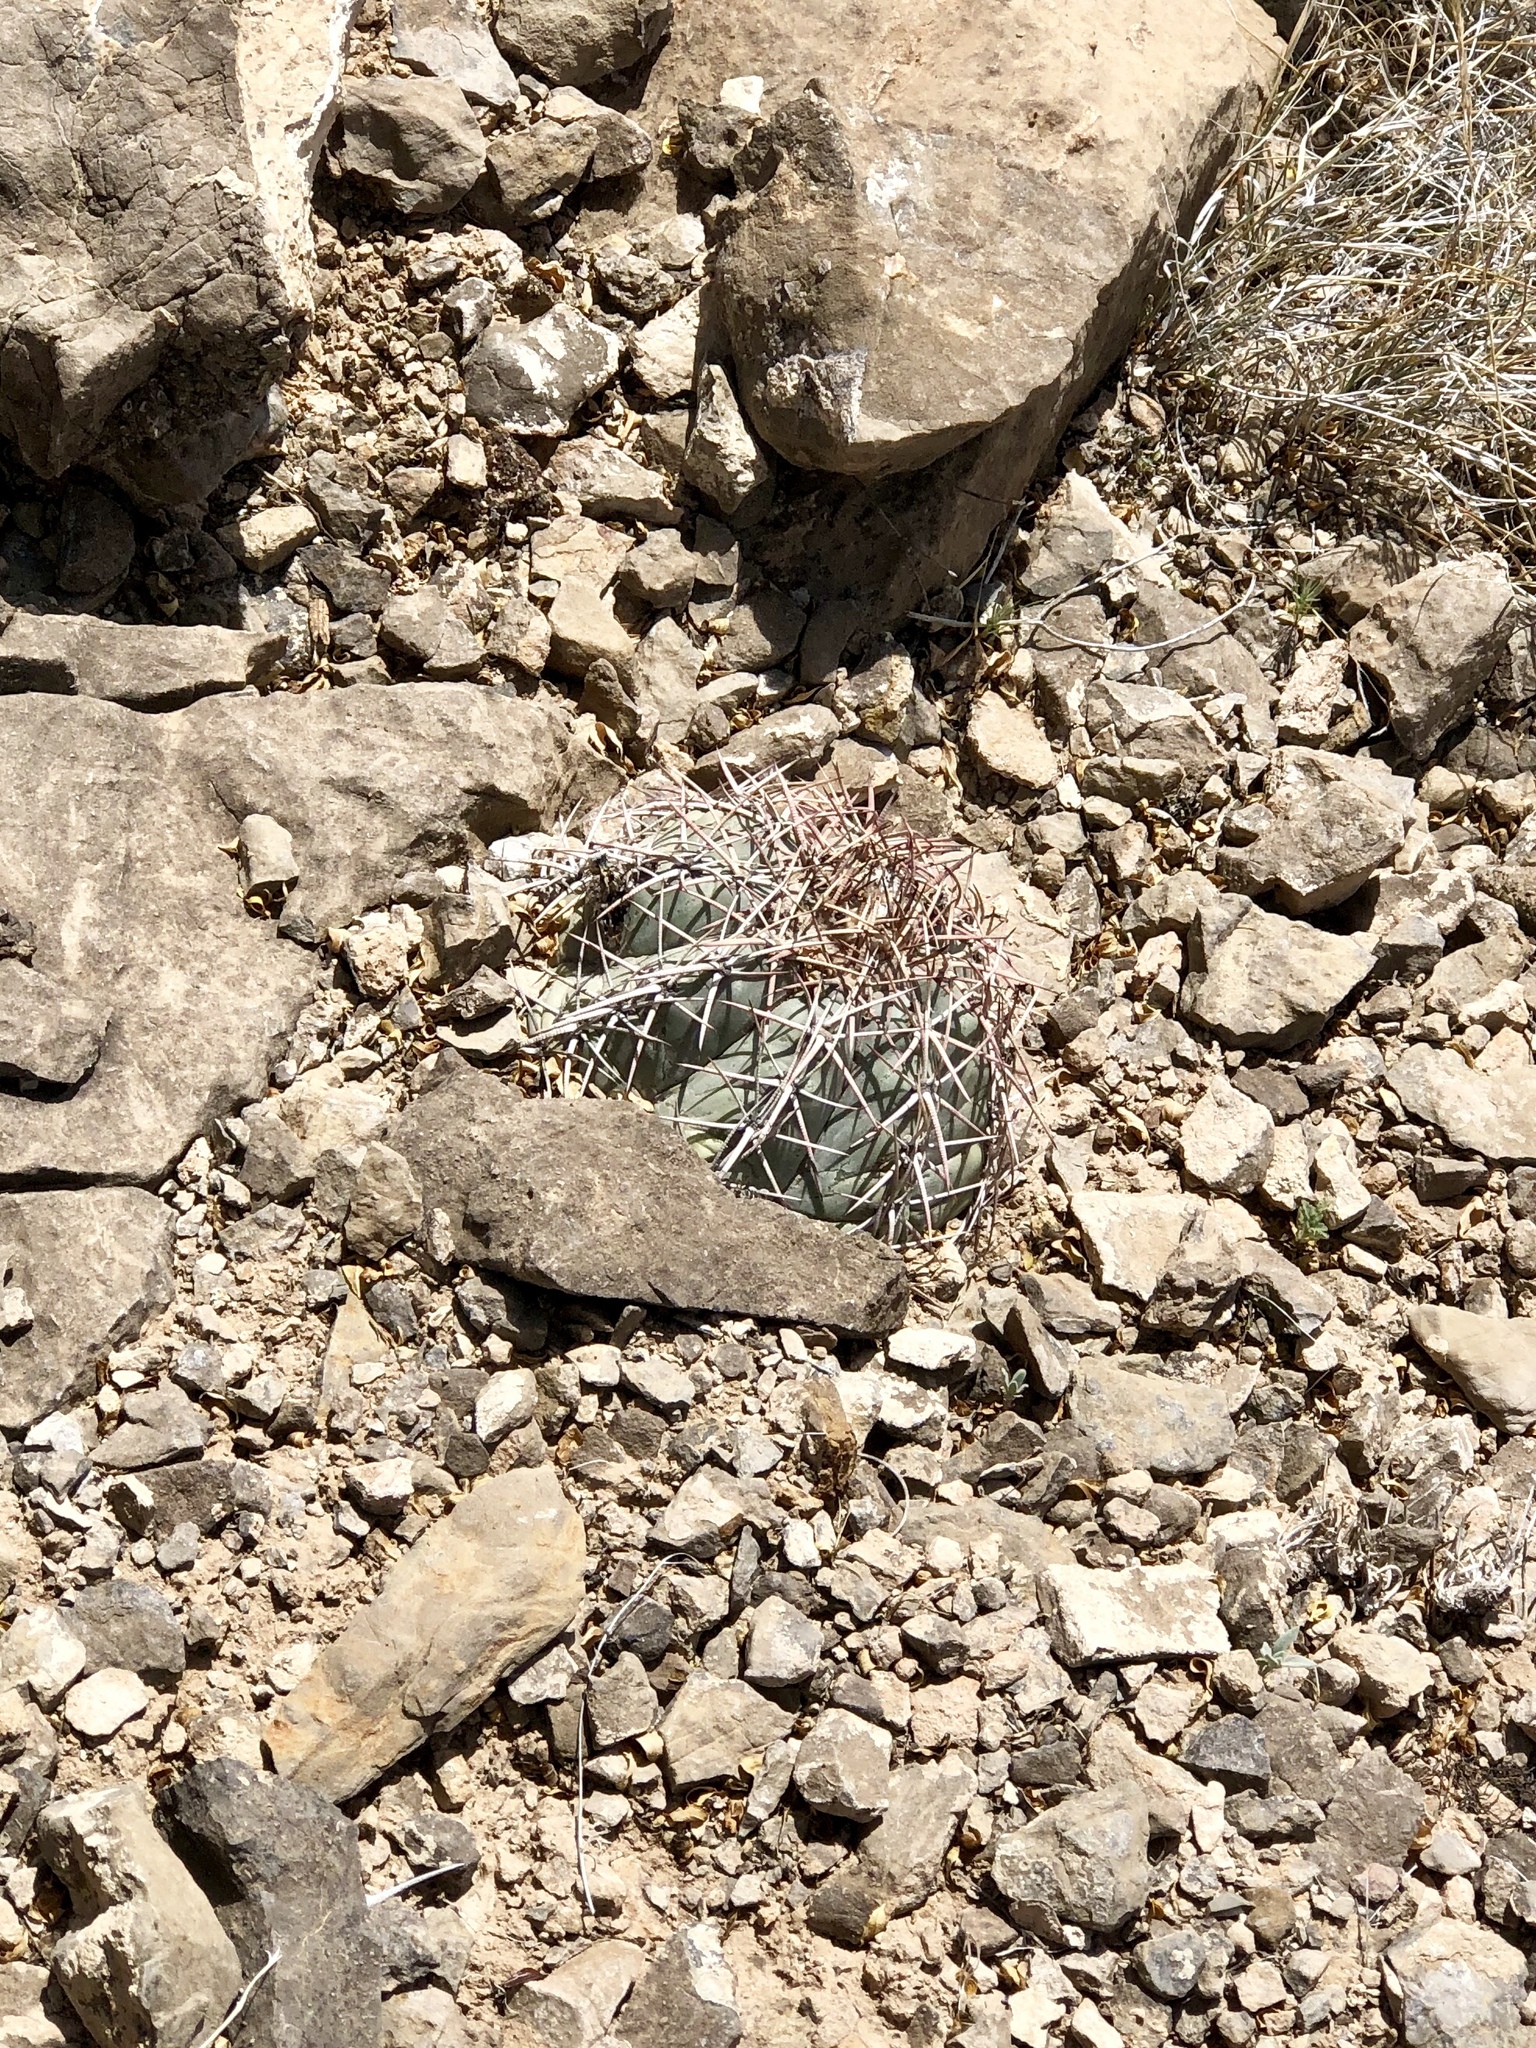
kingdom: Plantae
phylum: Tracheophyta
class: Magnoliopsida
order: Caryophyllales
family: Cactaceae
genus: Echinocactus
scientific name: Echinocactus horizonthalonius
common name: Devilshead
